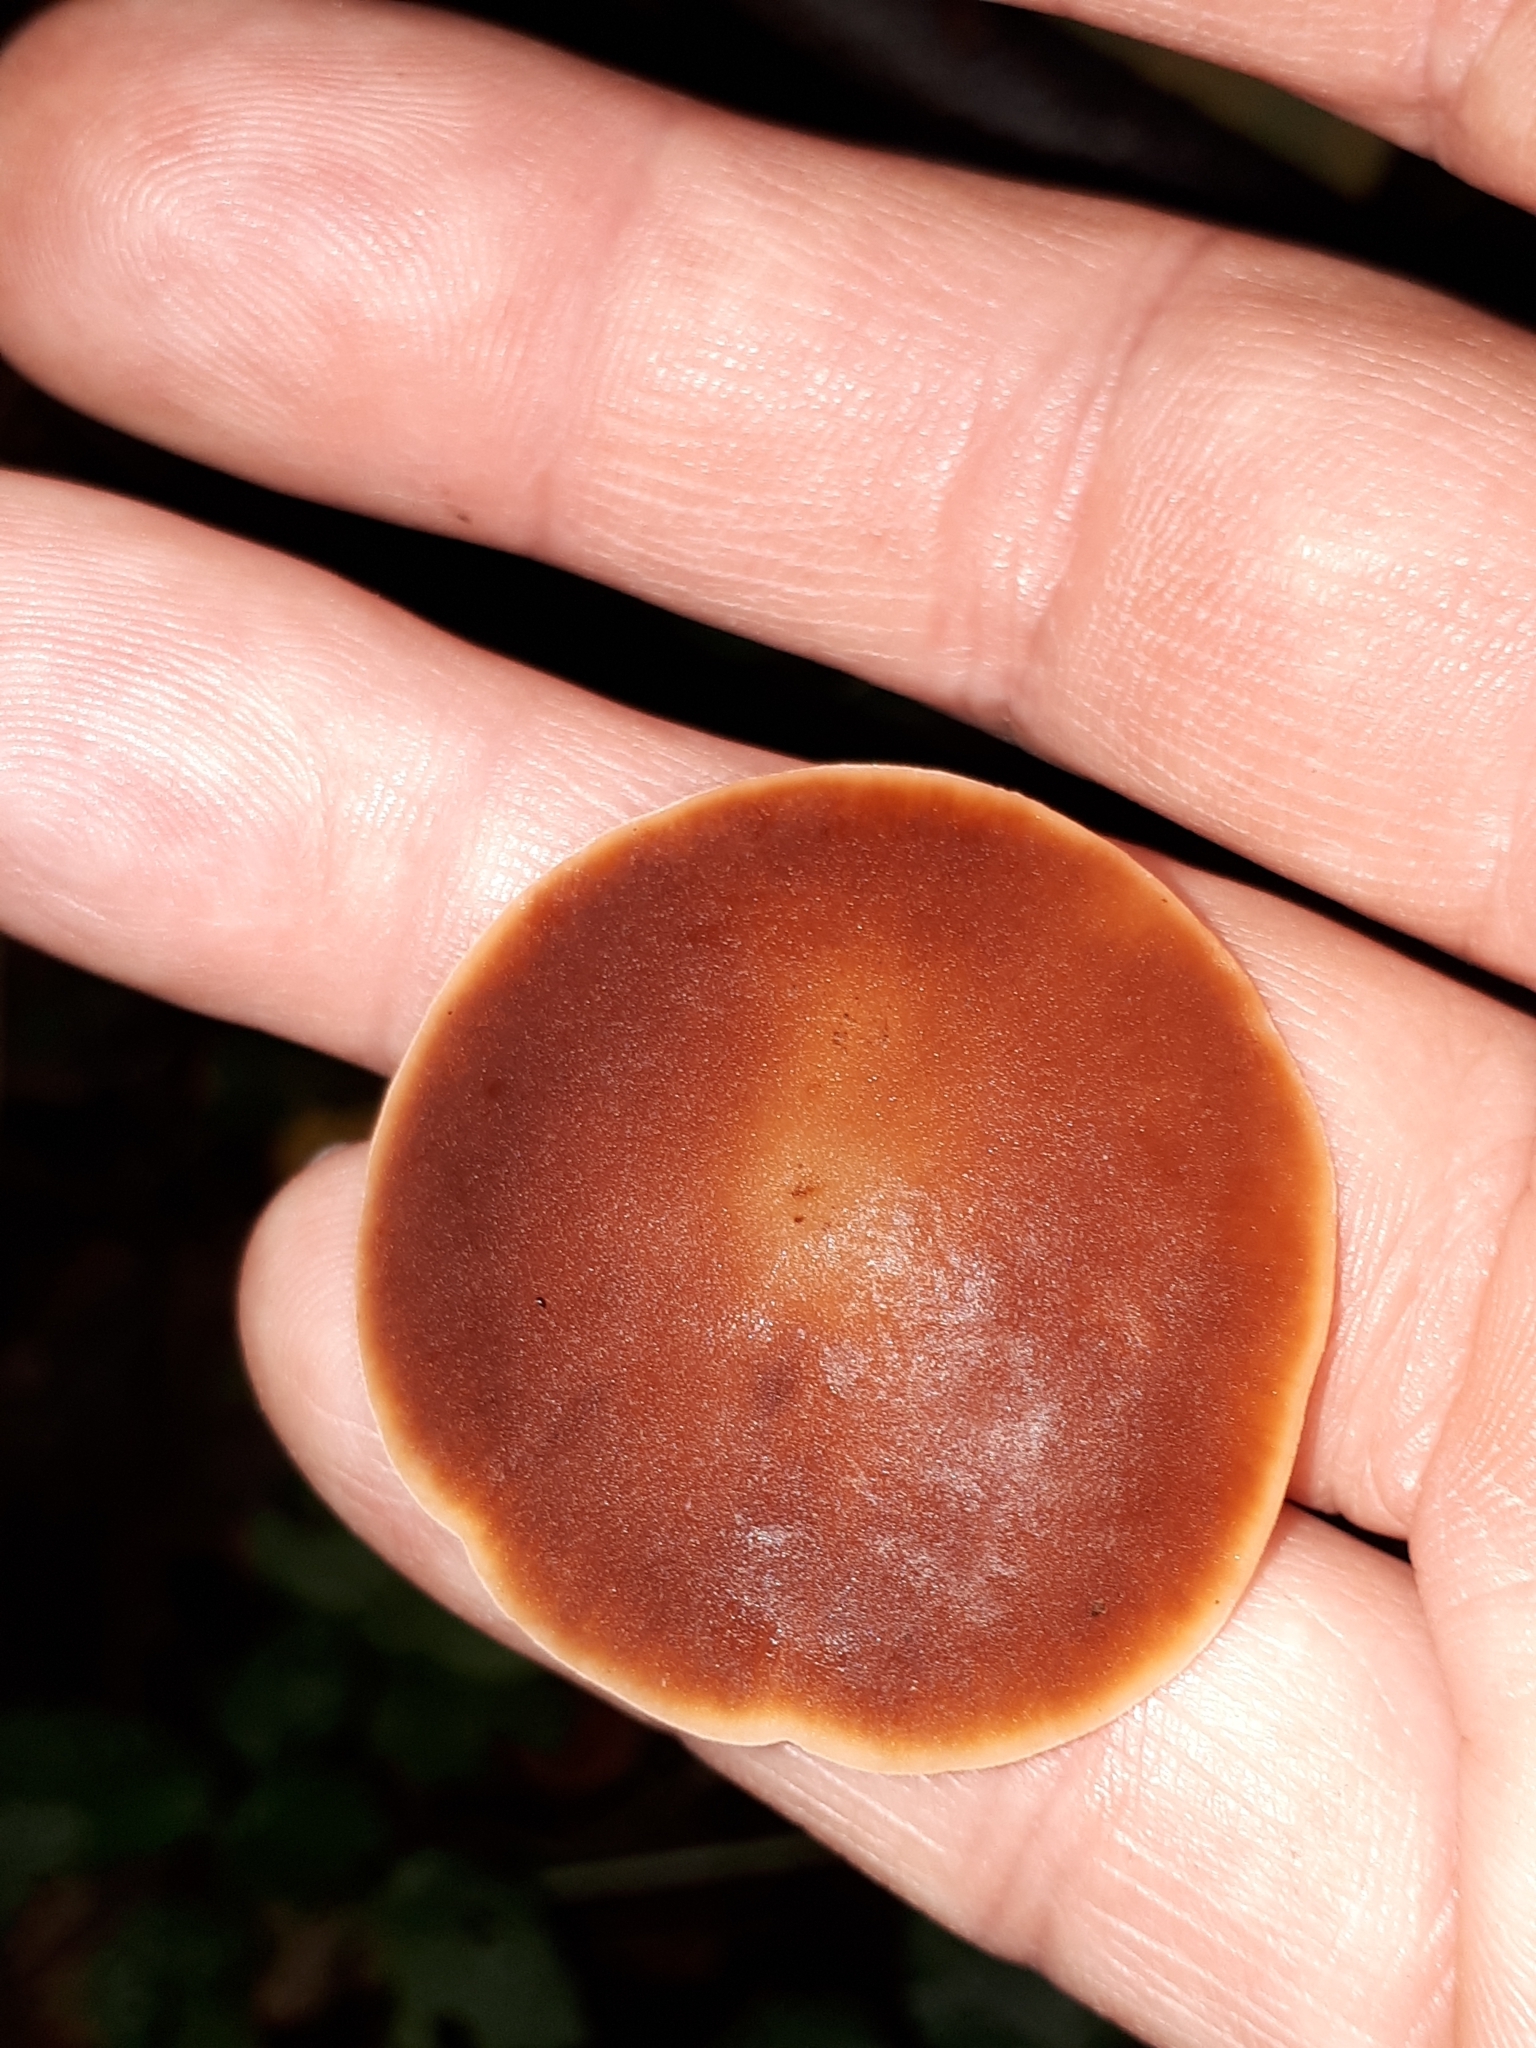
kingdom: Fungi
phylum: Basidiomycota
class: Agaricomycetes
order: Agaricales
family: Macrocystidiaceae
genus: Macrocystidia
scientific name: Macrocystidia cucumis
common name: Cucumber cap
